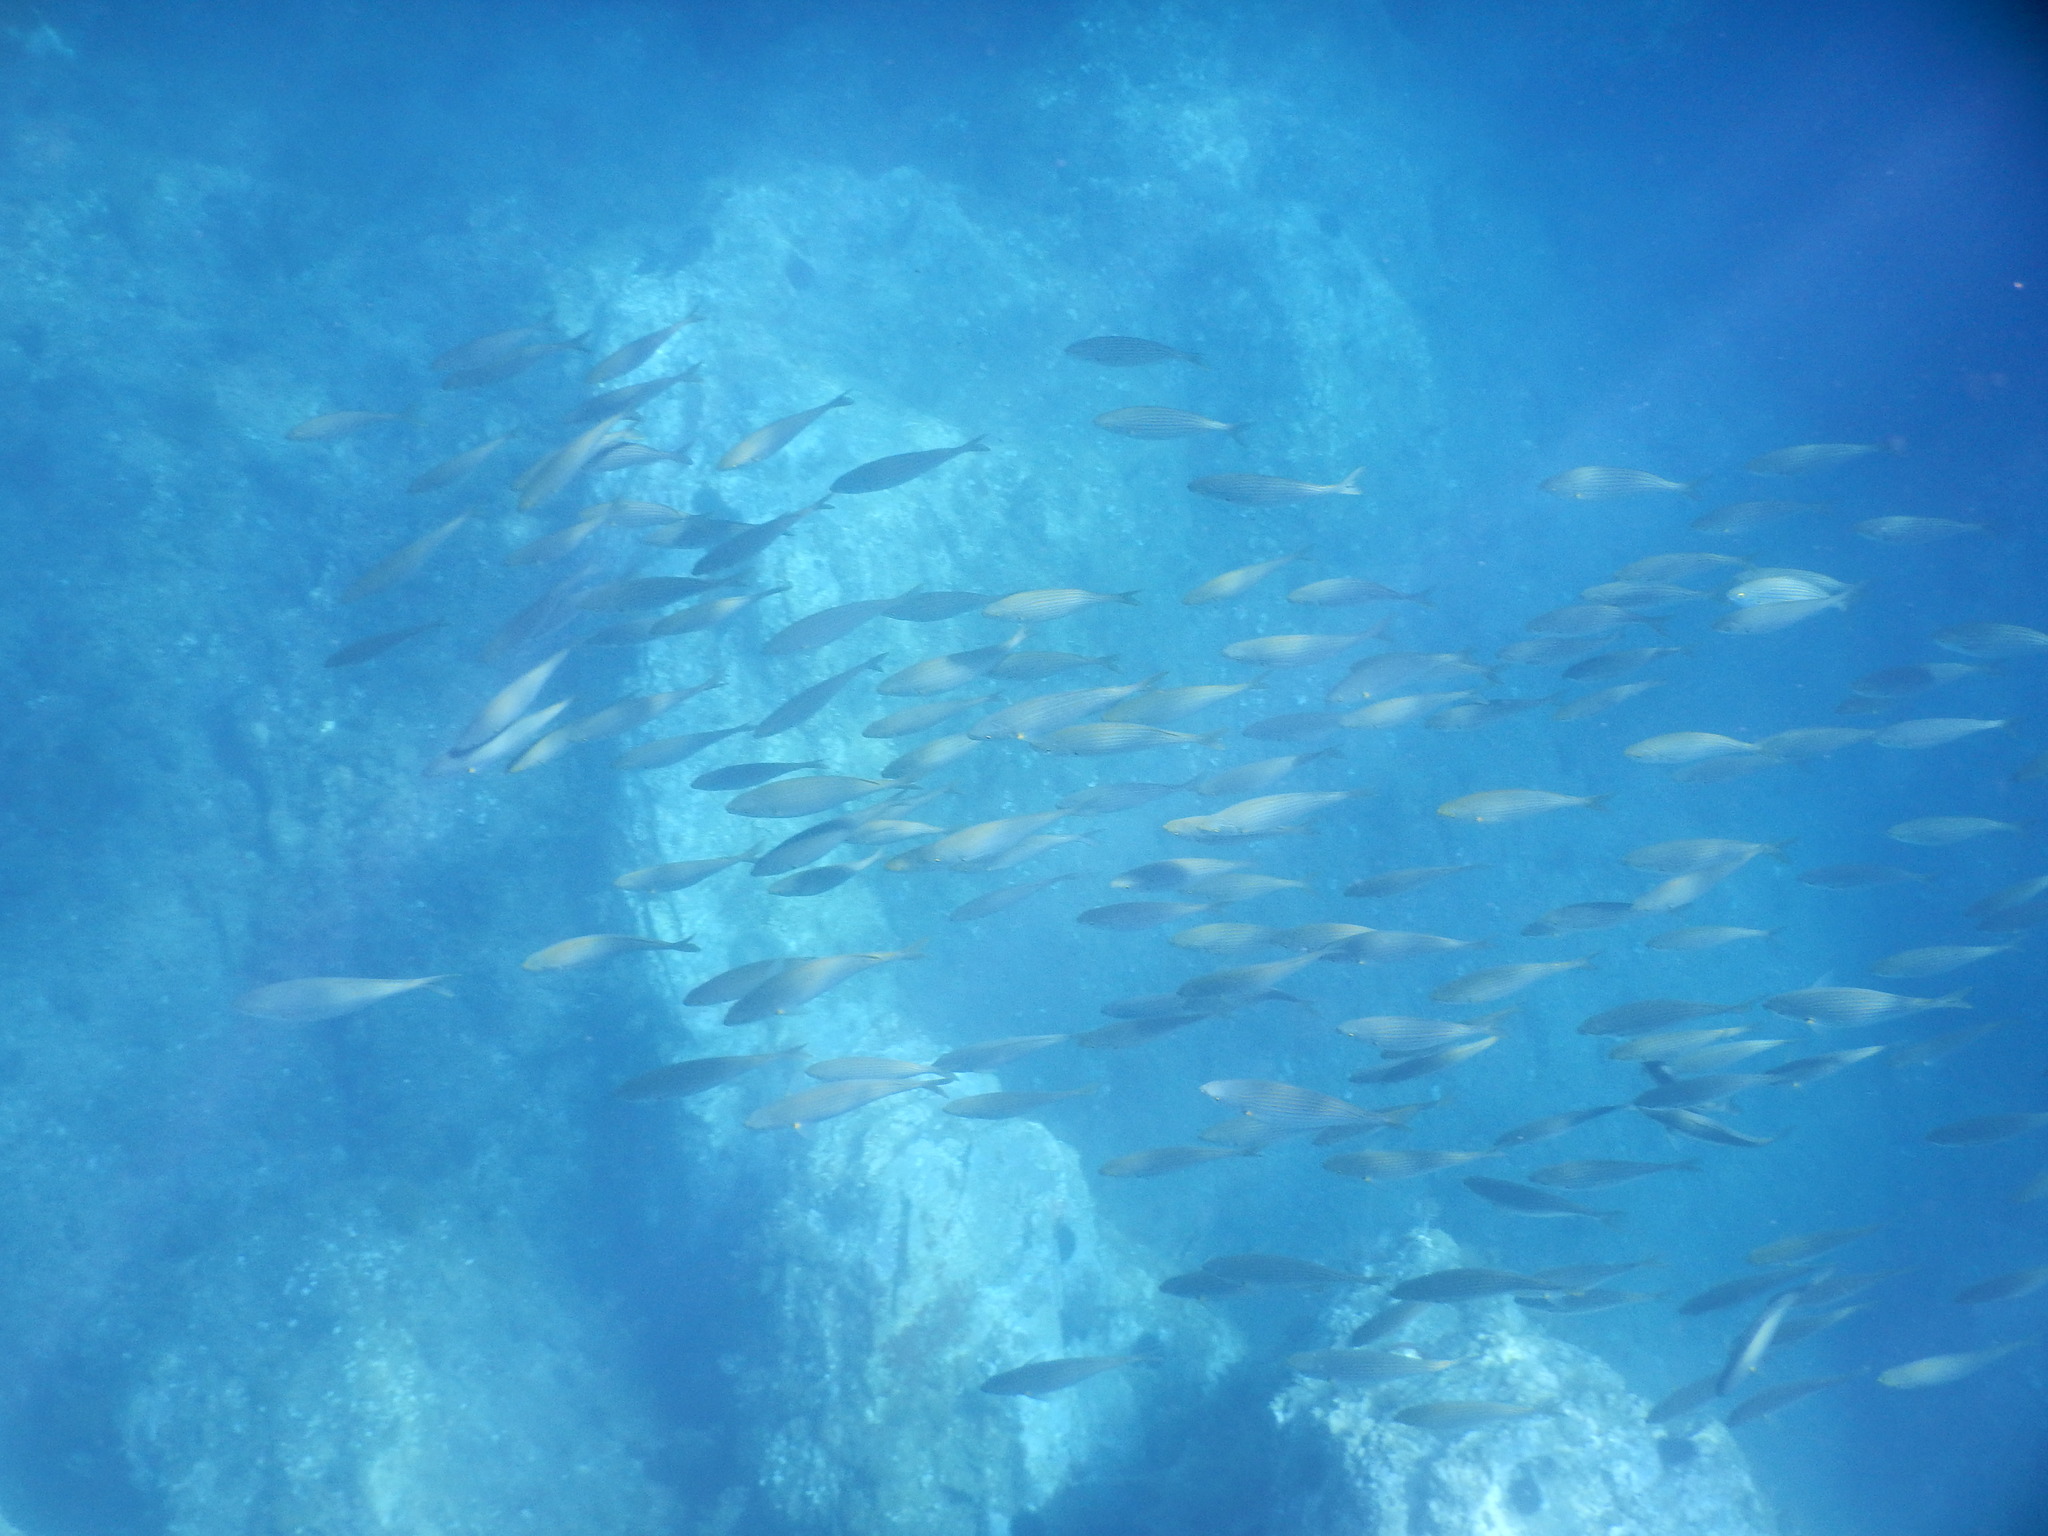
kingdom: Animalia
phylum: Chordata
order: Perciformes
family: Sparidae
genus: Sarpa
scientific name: Sarpa salpa
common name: Salema
